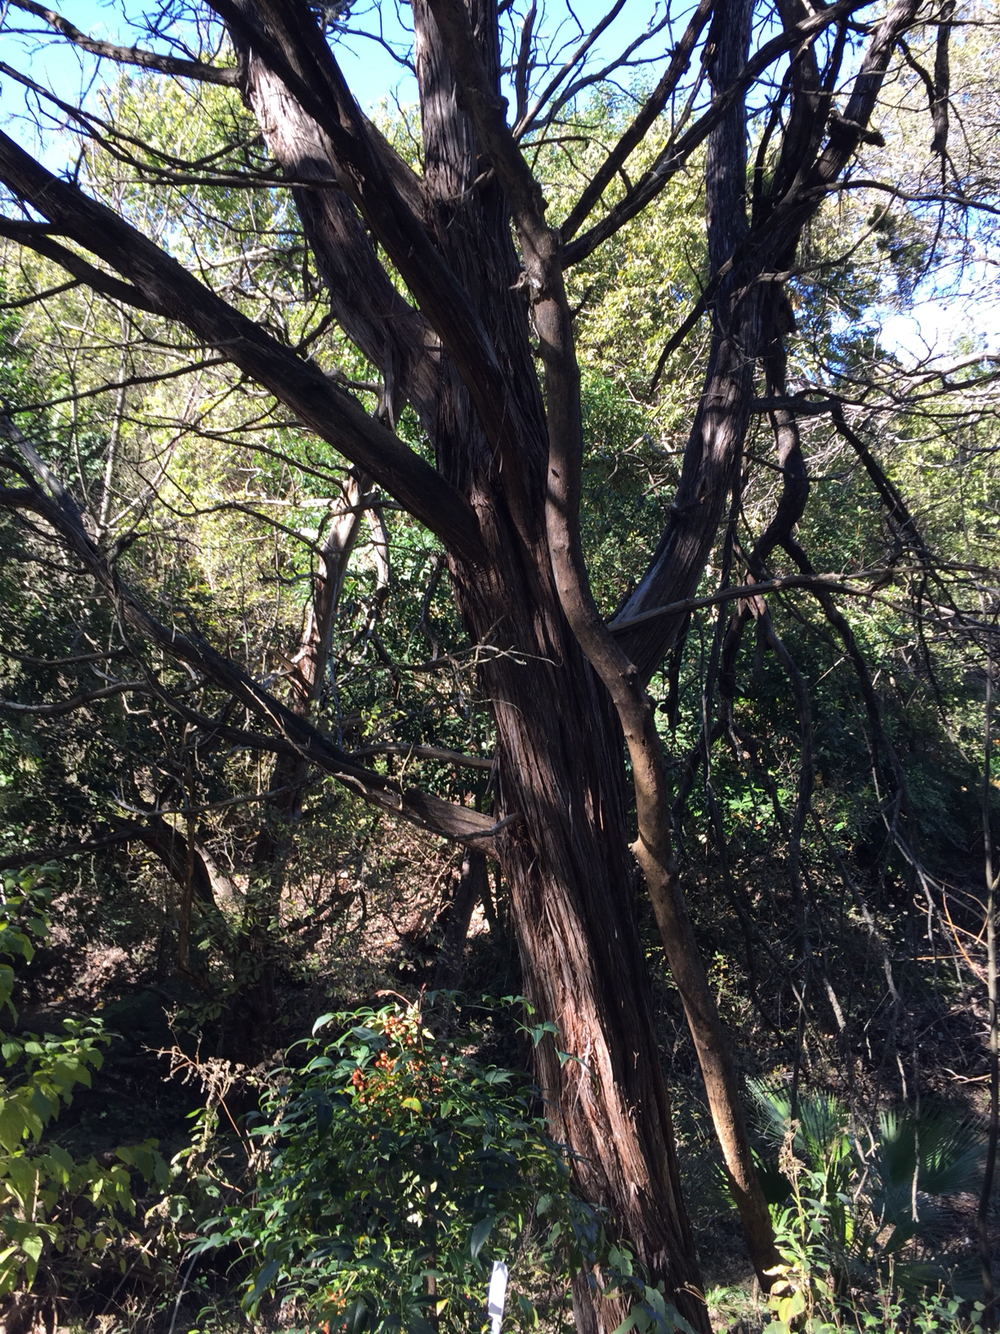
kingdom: Plantae
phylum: Tracheophyta
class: Pinopsida
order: Pinales
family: Cupressaceae
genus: Juniperus
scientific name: Juniperus ashei
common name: Mexican juniper
